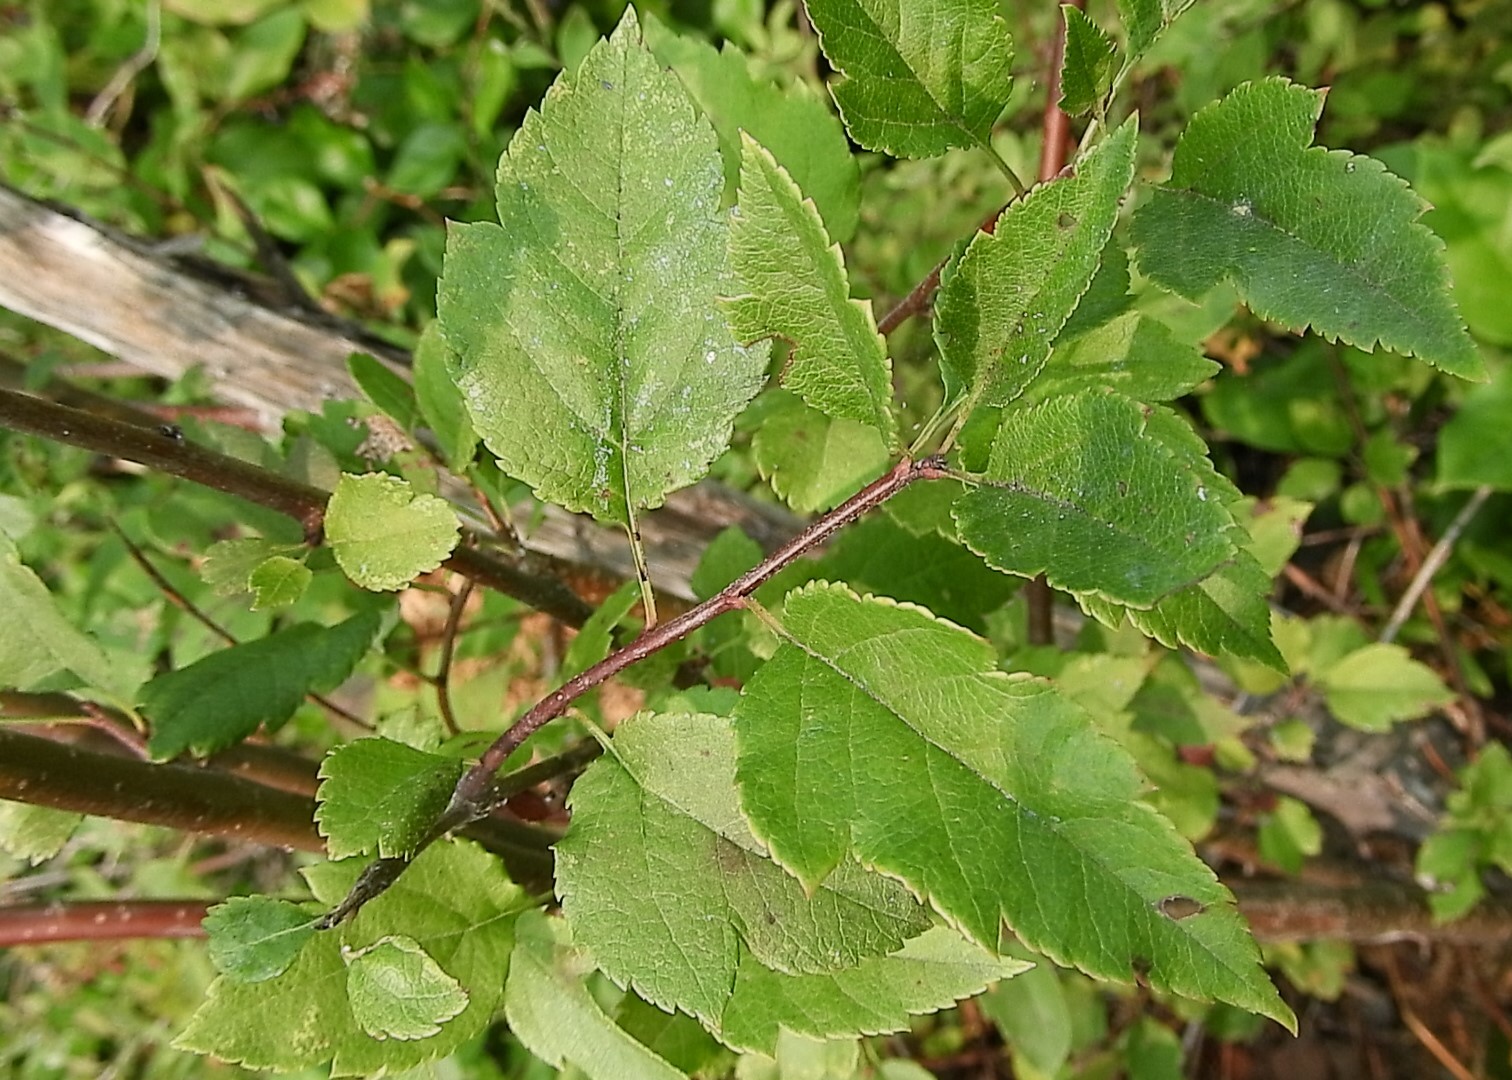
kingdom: Plantae
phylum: Tracheophyta
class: Magnoliopsida
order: Rosales
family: Rosaceae
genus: Malus
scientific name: Malus fusca
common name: Oregon crab apple
